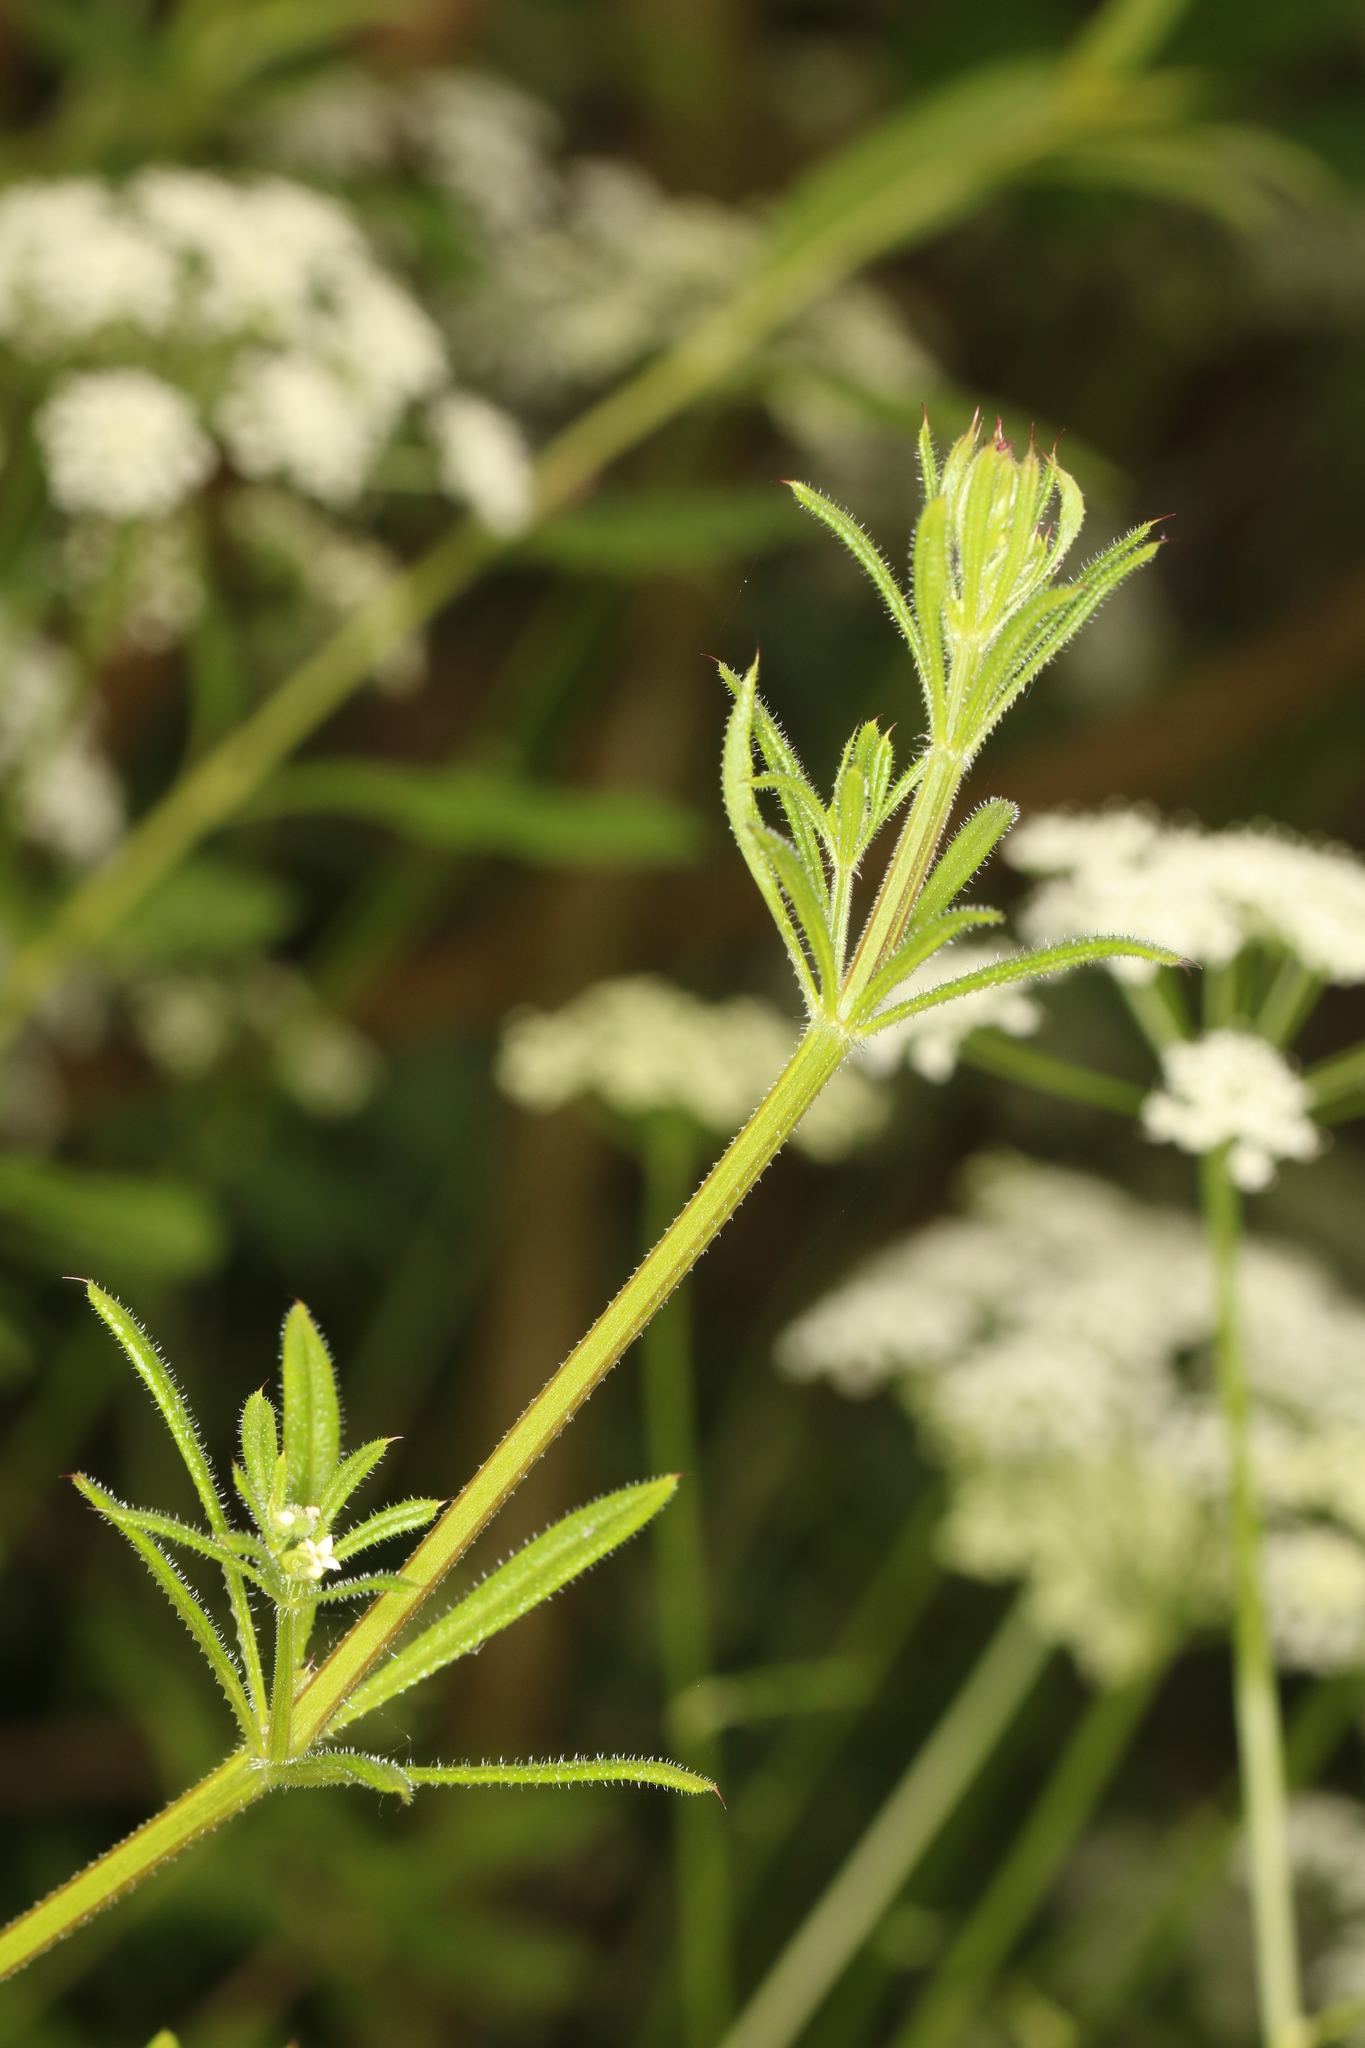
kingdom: Plantae
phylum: Tracheophyta
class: Magnoliopsida
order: Gentianales
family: Rubiaceae
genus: Galium
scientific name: Galium aparine
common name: Cleavers
